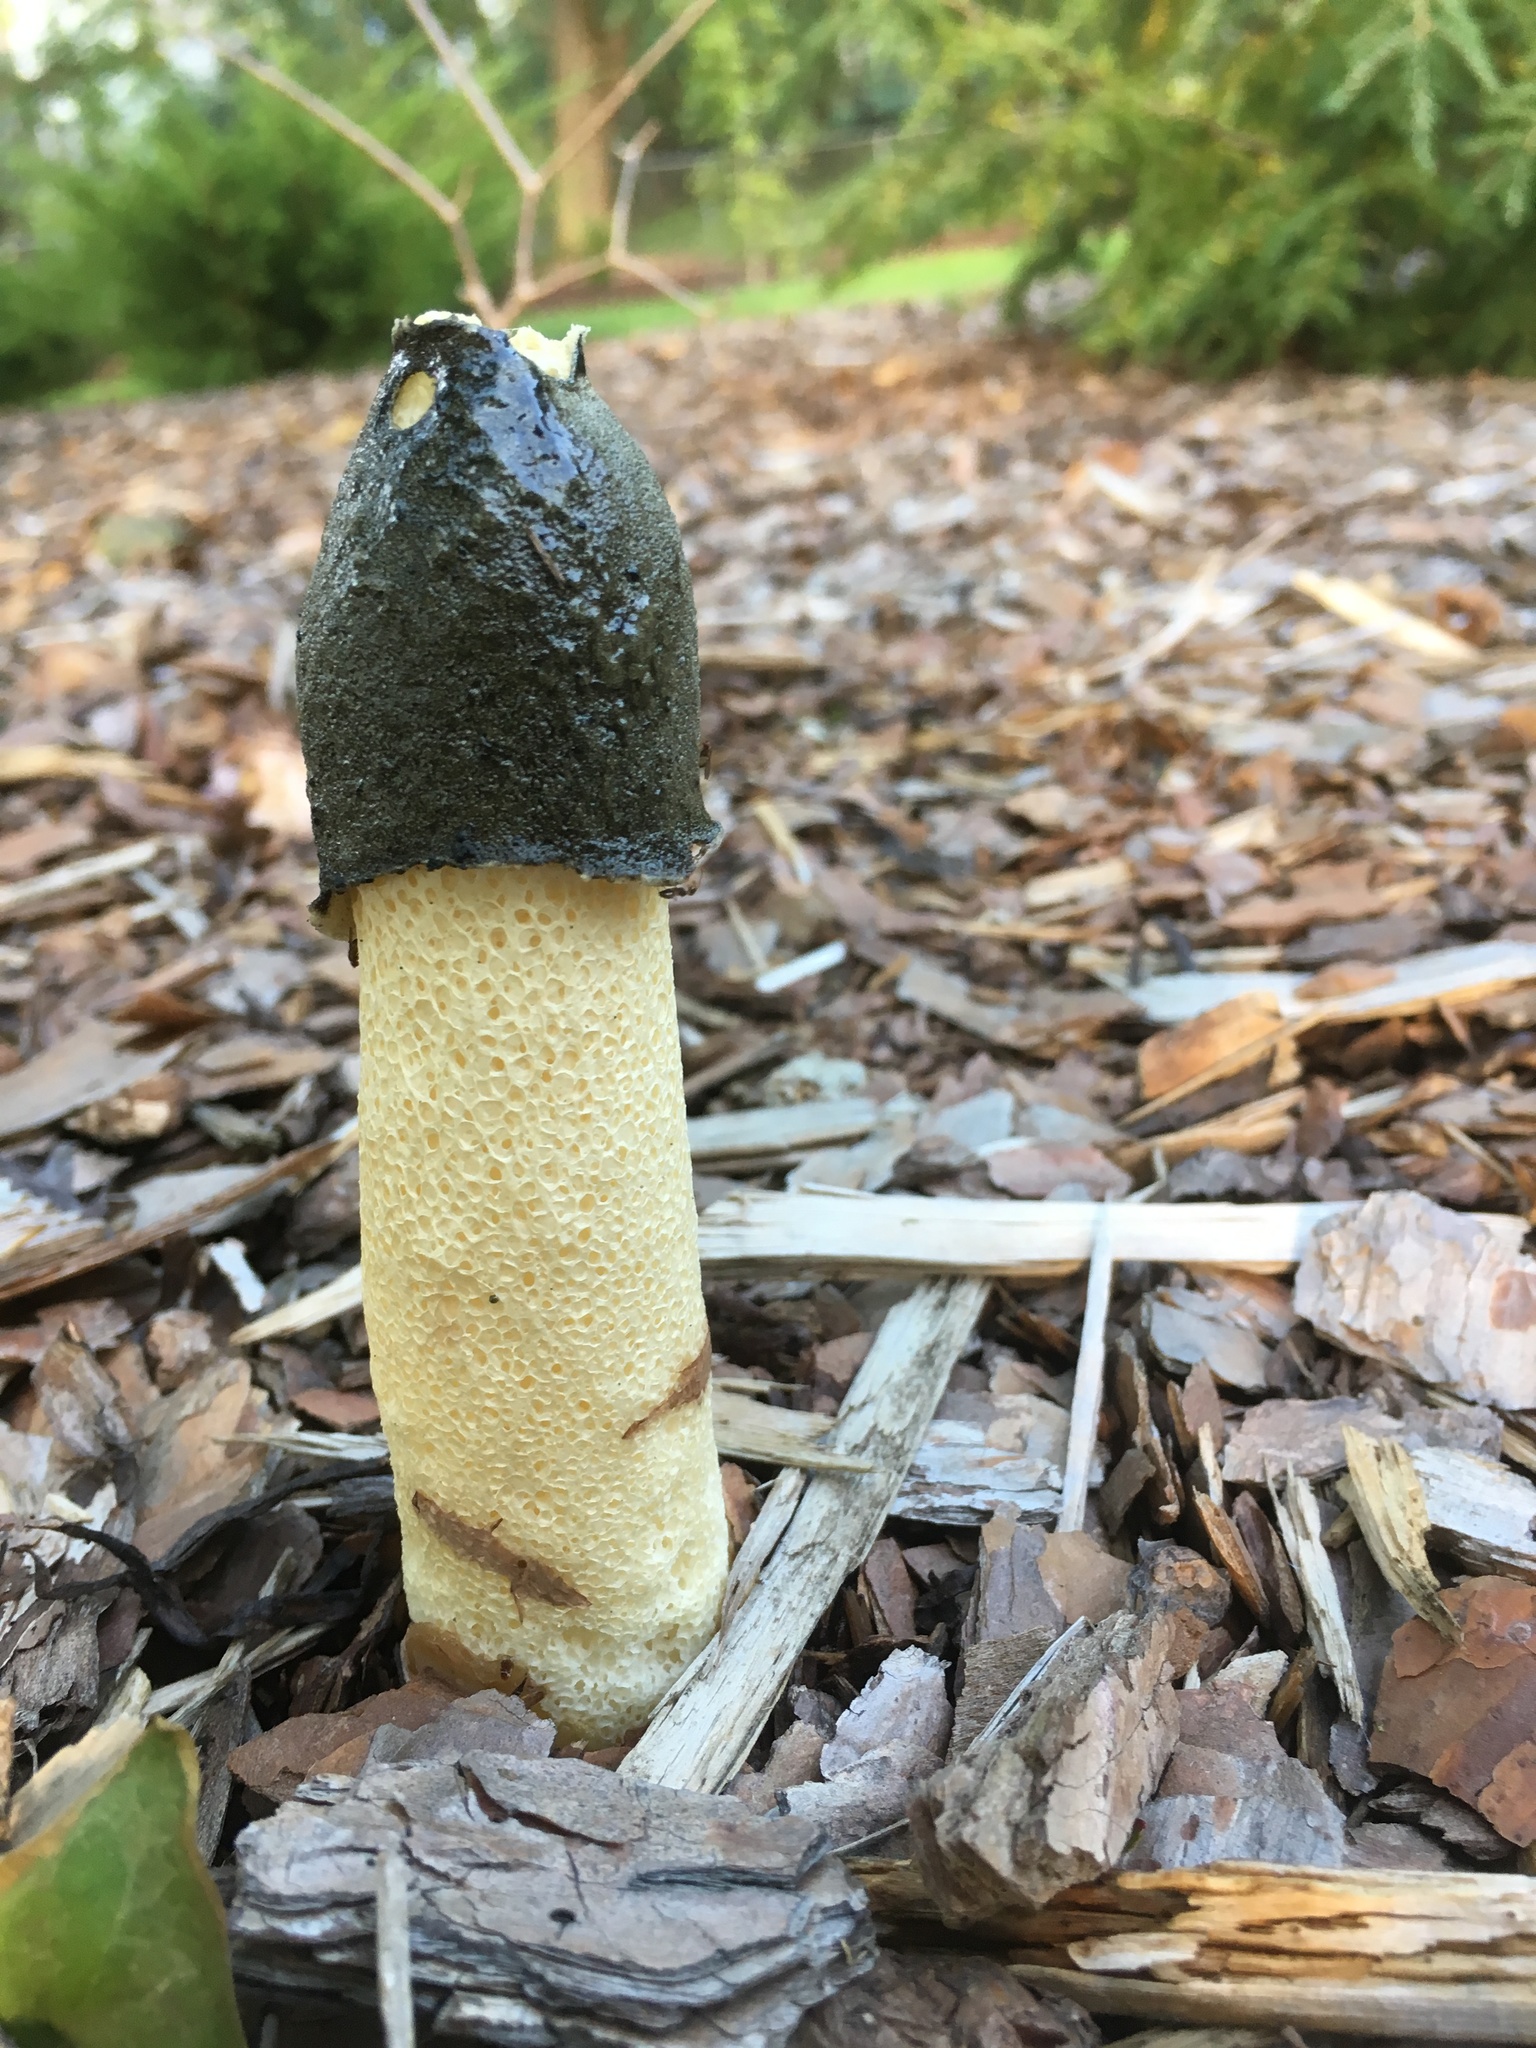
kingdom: Fungi
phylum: Basidiomycota
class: Agaricomycetes
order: Phallales
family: Phallaceae
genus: Phallus
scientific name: Phallus ravenelii
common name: Ravenel's stinkhorn
